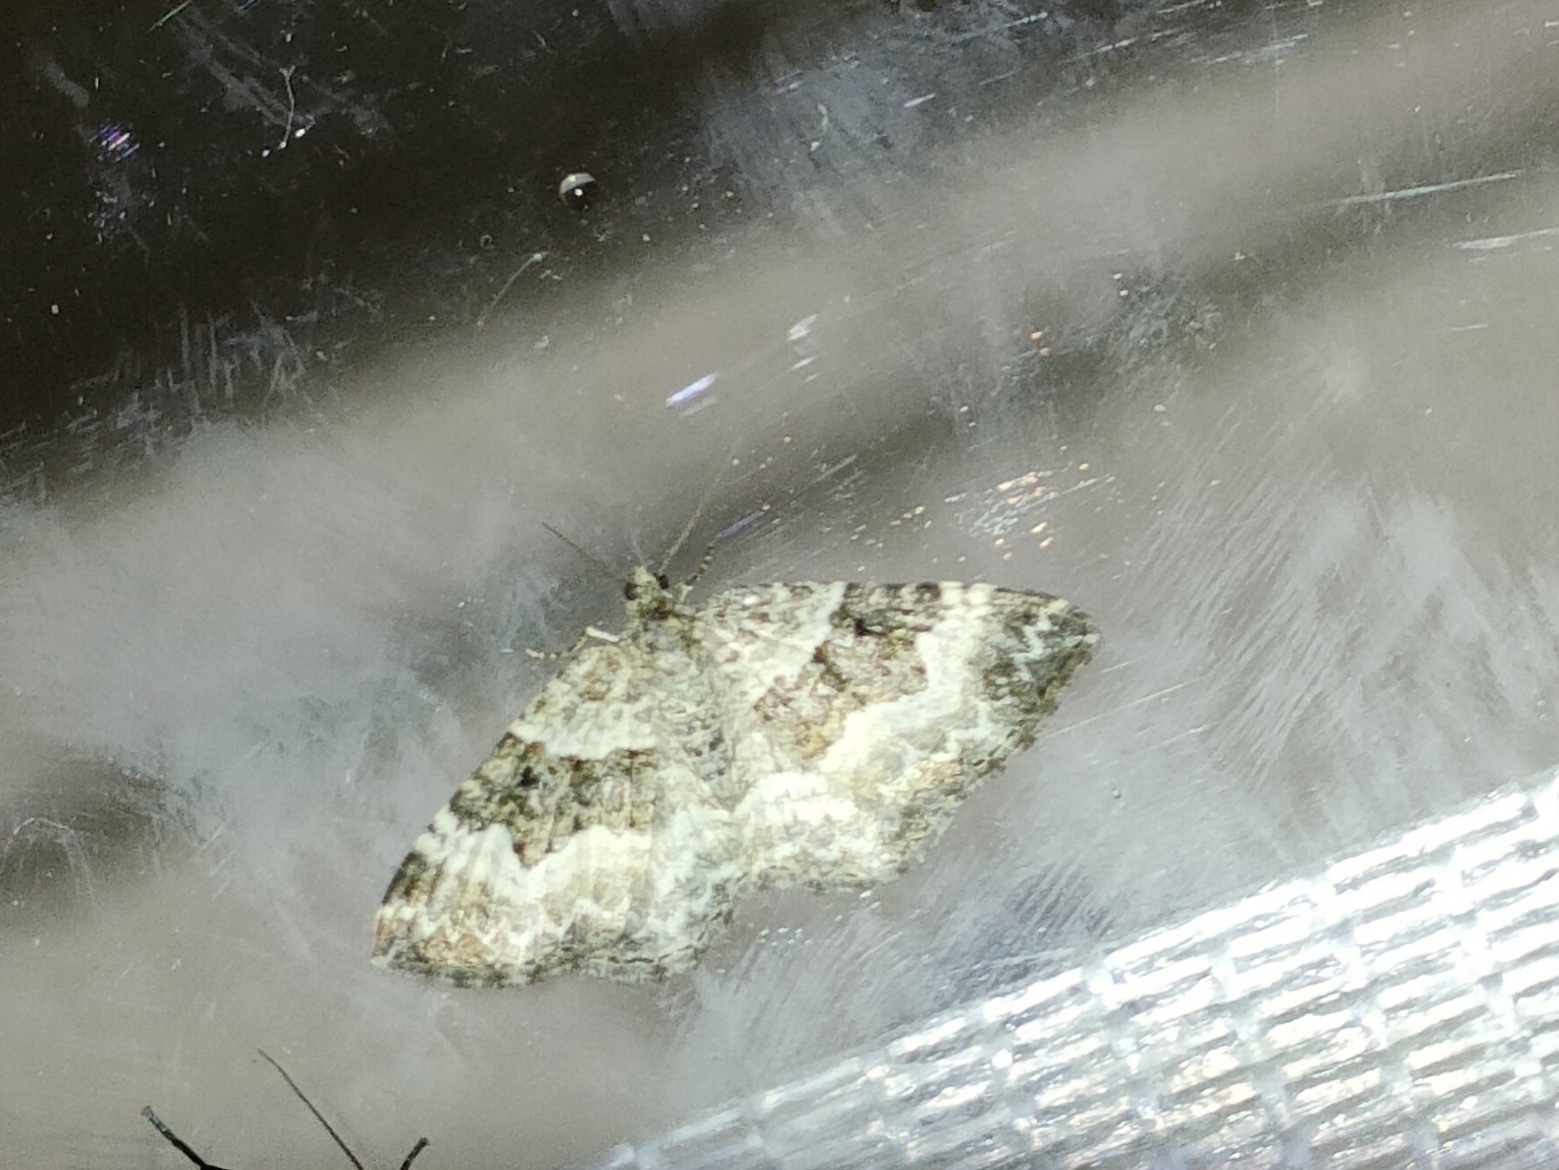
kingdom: Animalia
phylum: Arthropoda
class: Insecta
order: Lepidoptera
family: Geometridae
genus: Epirrhoe
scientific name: Epirrhoe alternata
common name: Common carpet
